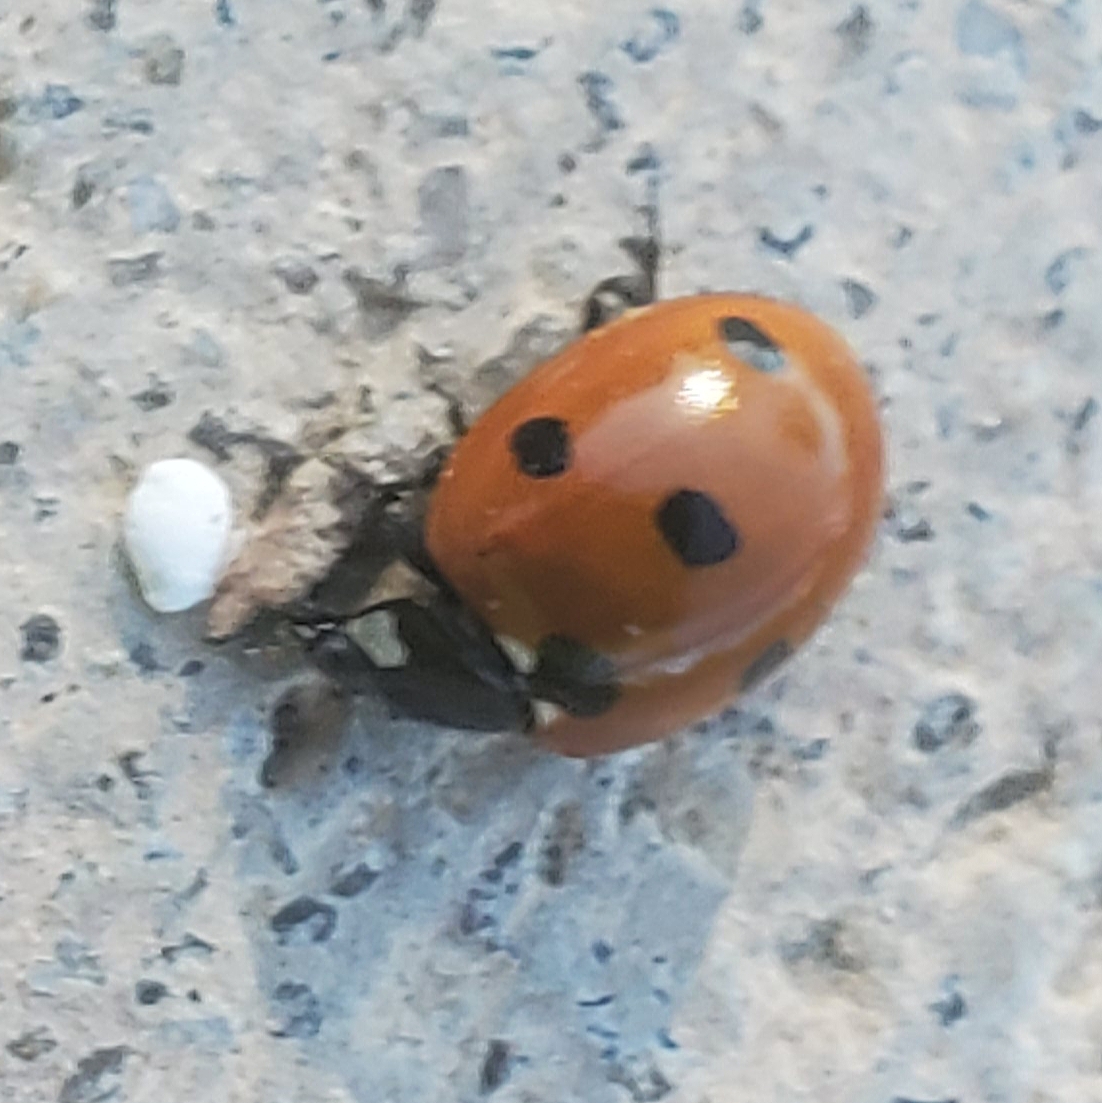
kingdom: Animalia
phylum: Arthropoda
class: Insecta
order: Coleoptera
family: Coccinellidae
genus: Coccinella
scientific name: Coccinella septempunctata
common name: Sevenspotted lady beetle
